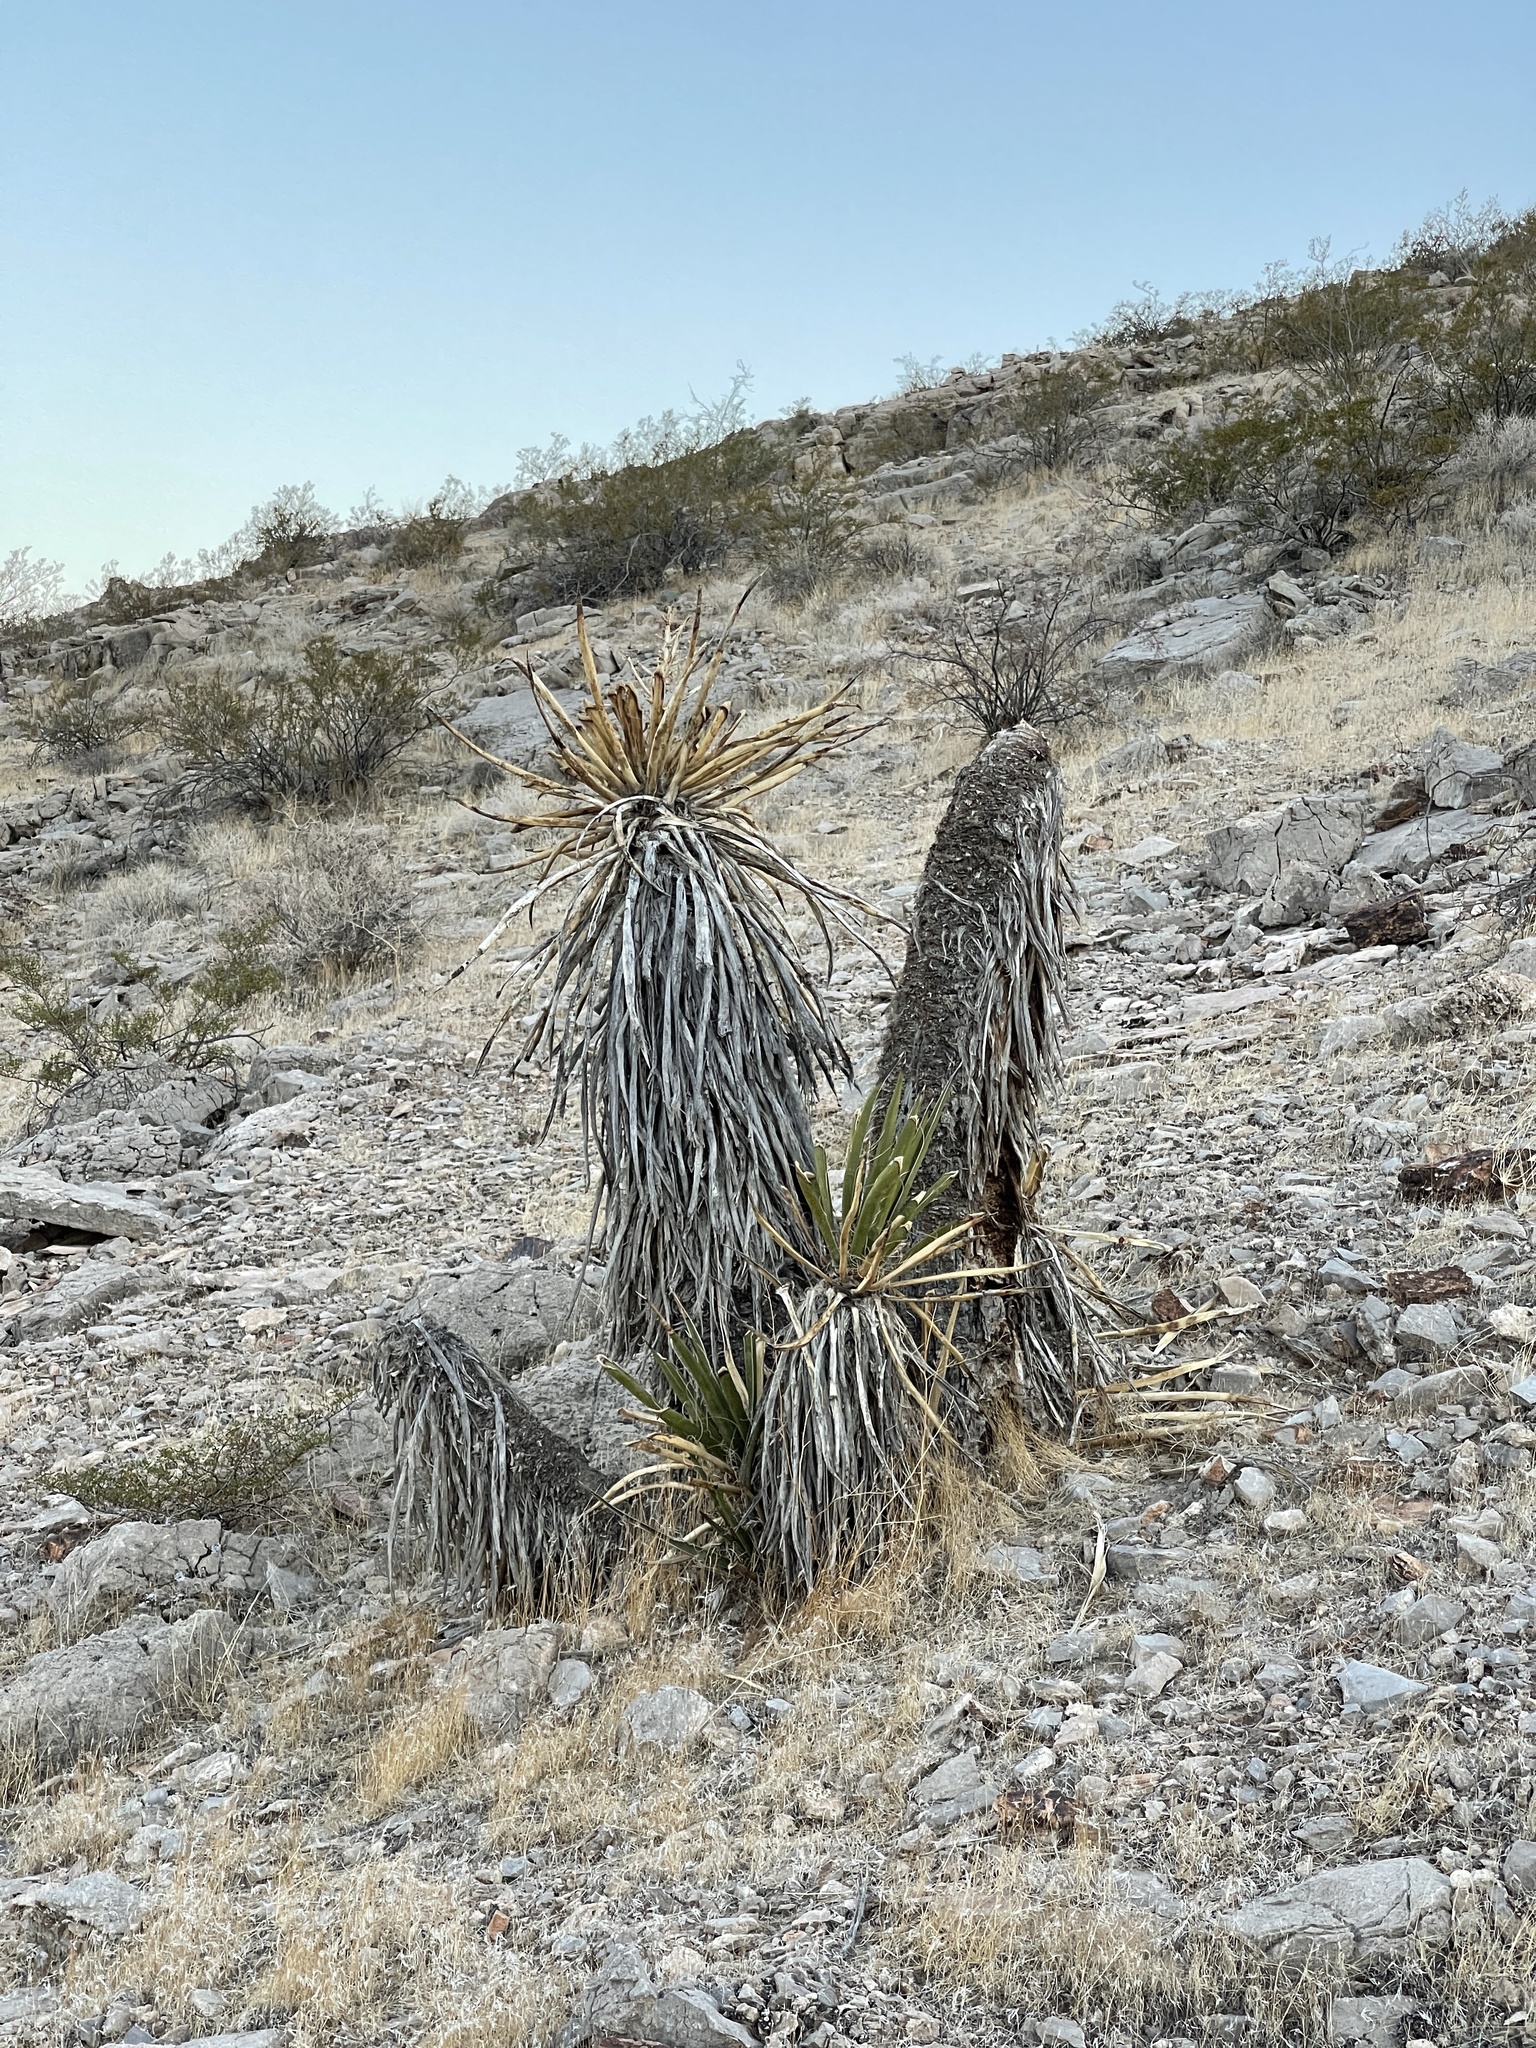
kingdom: Plantae
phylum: Tracheophyta
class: Liliopsida
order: Asparagales
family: Asparagaceae
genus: Yucca
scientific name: Yucca schidigera
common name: Mojave yucca
